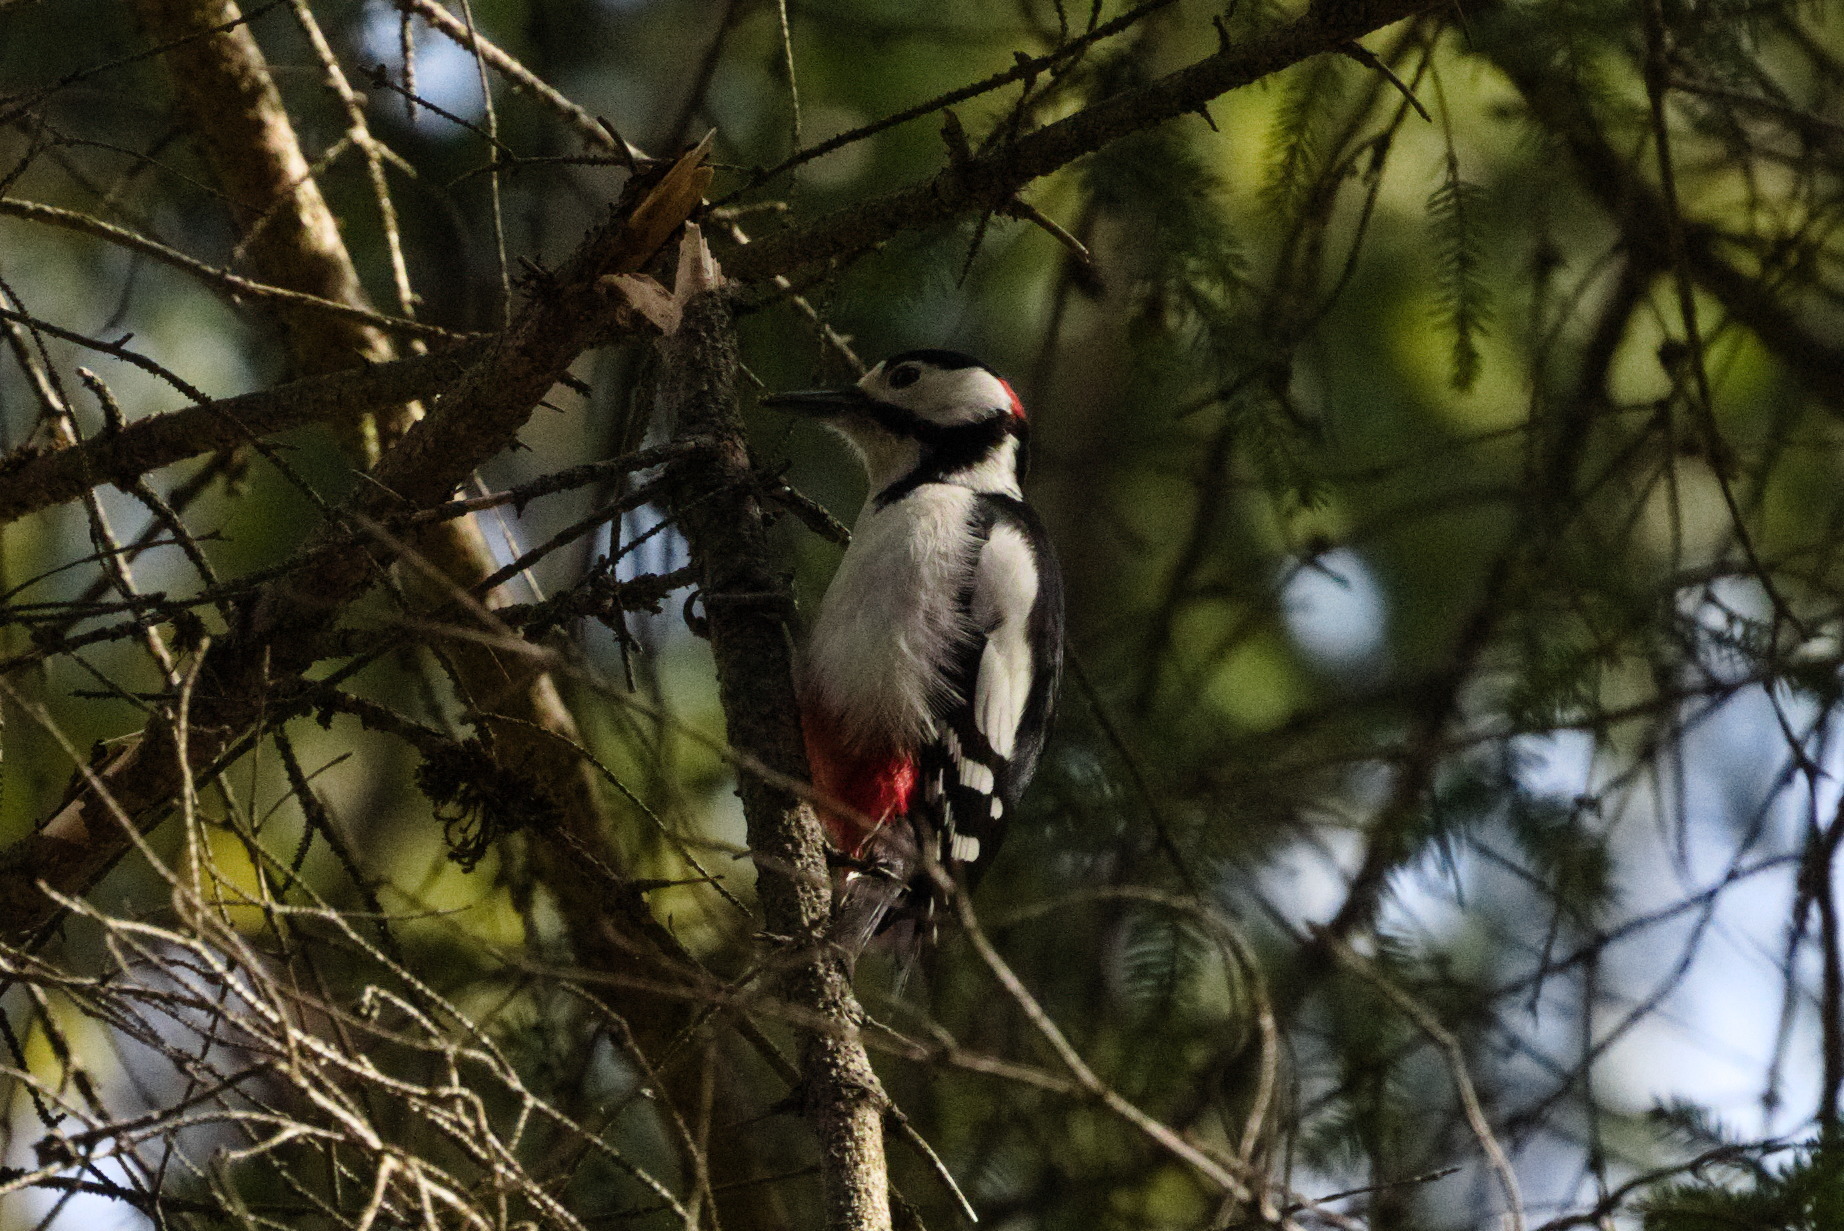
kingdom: Animalia
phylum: Chordata
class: Aves
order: Piciformes
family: Picidae
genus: Dendrocopos
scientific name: Dendrocopos major
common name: Great spotted woodpecker
